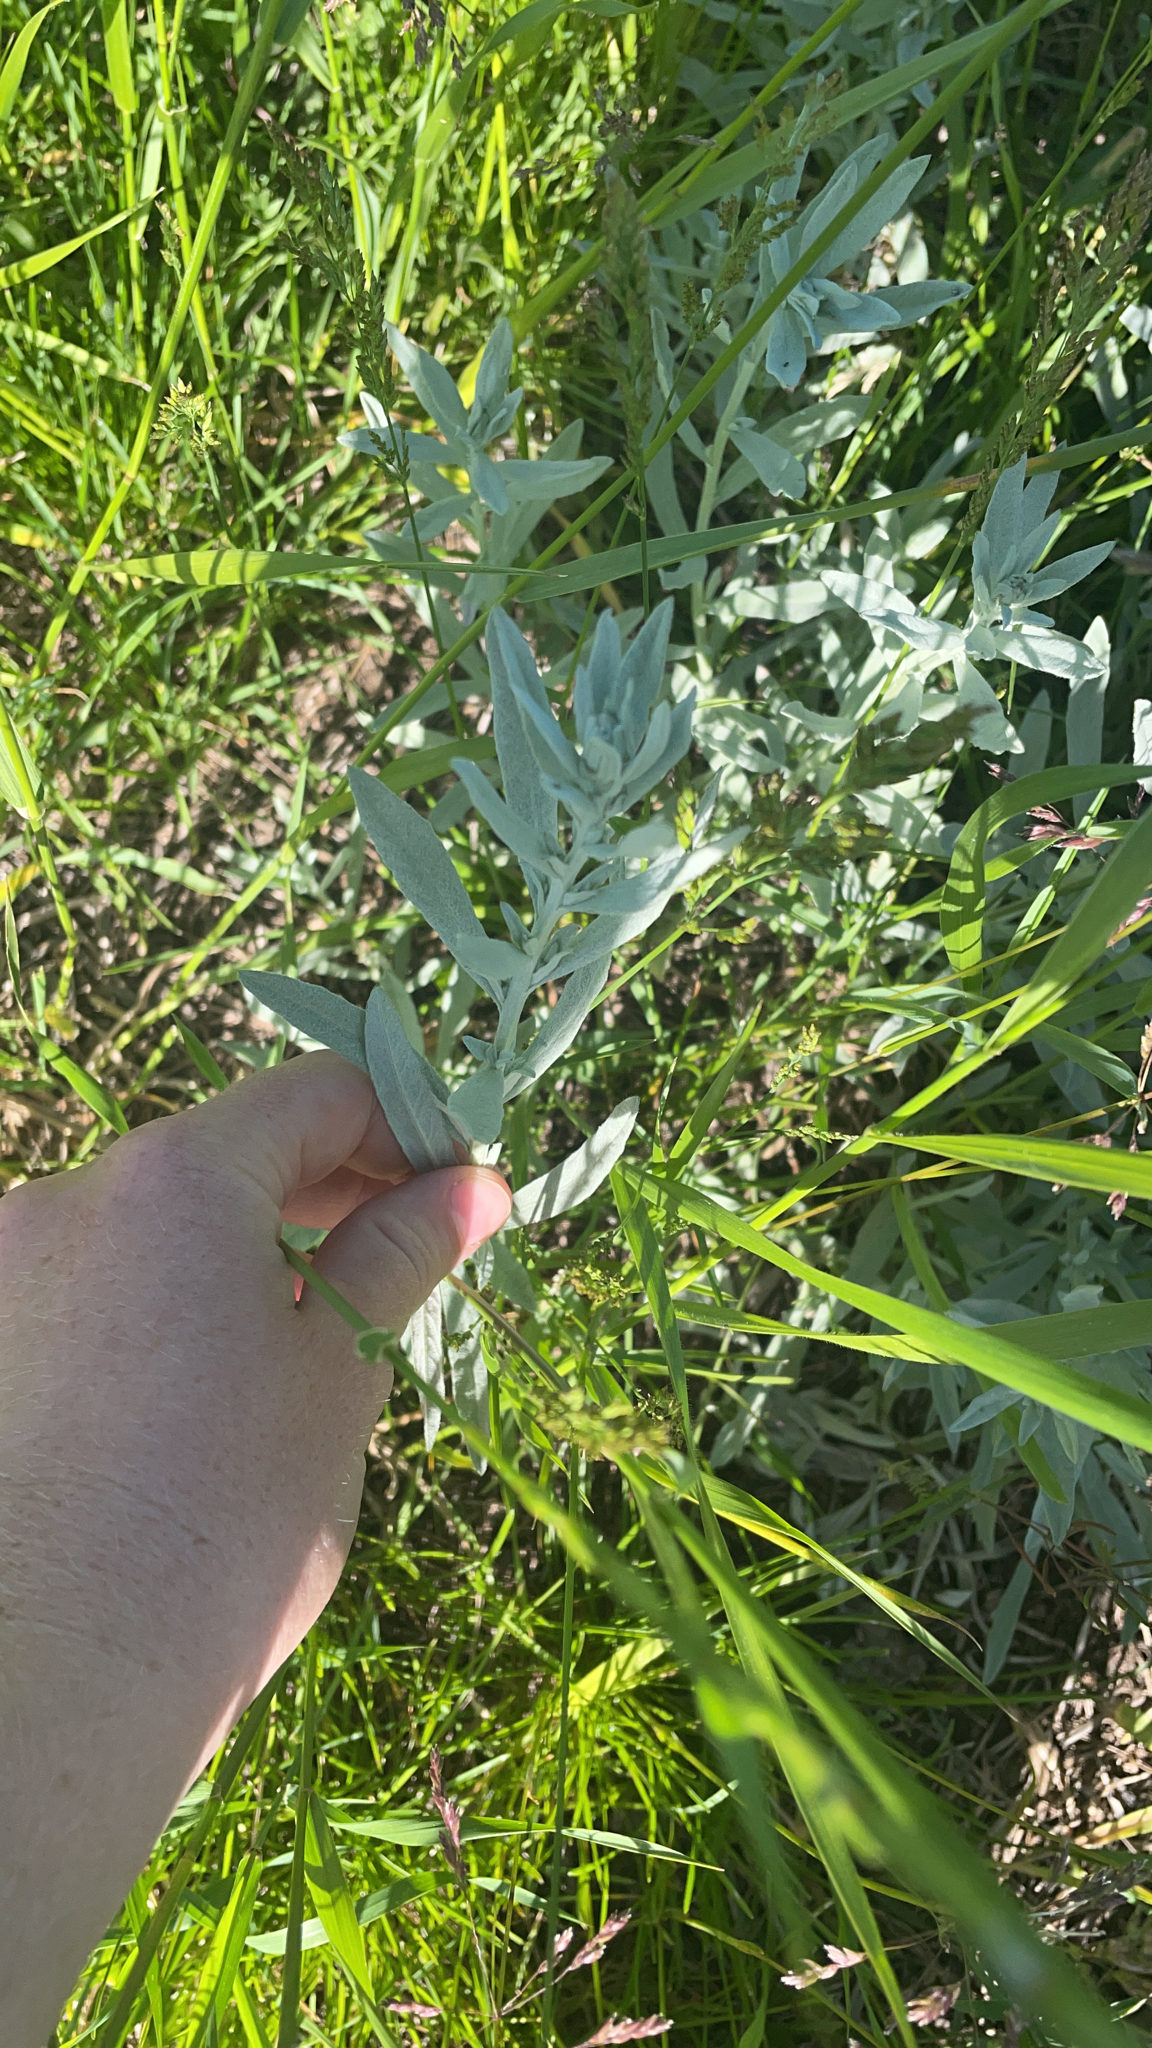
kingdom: Plantae
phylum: Tracheophyta
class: Magnoliopsida
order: Asterales
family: Asteraceae
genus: Artemisia
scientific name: Artemisia ludoviciana
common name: Western mugwort
